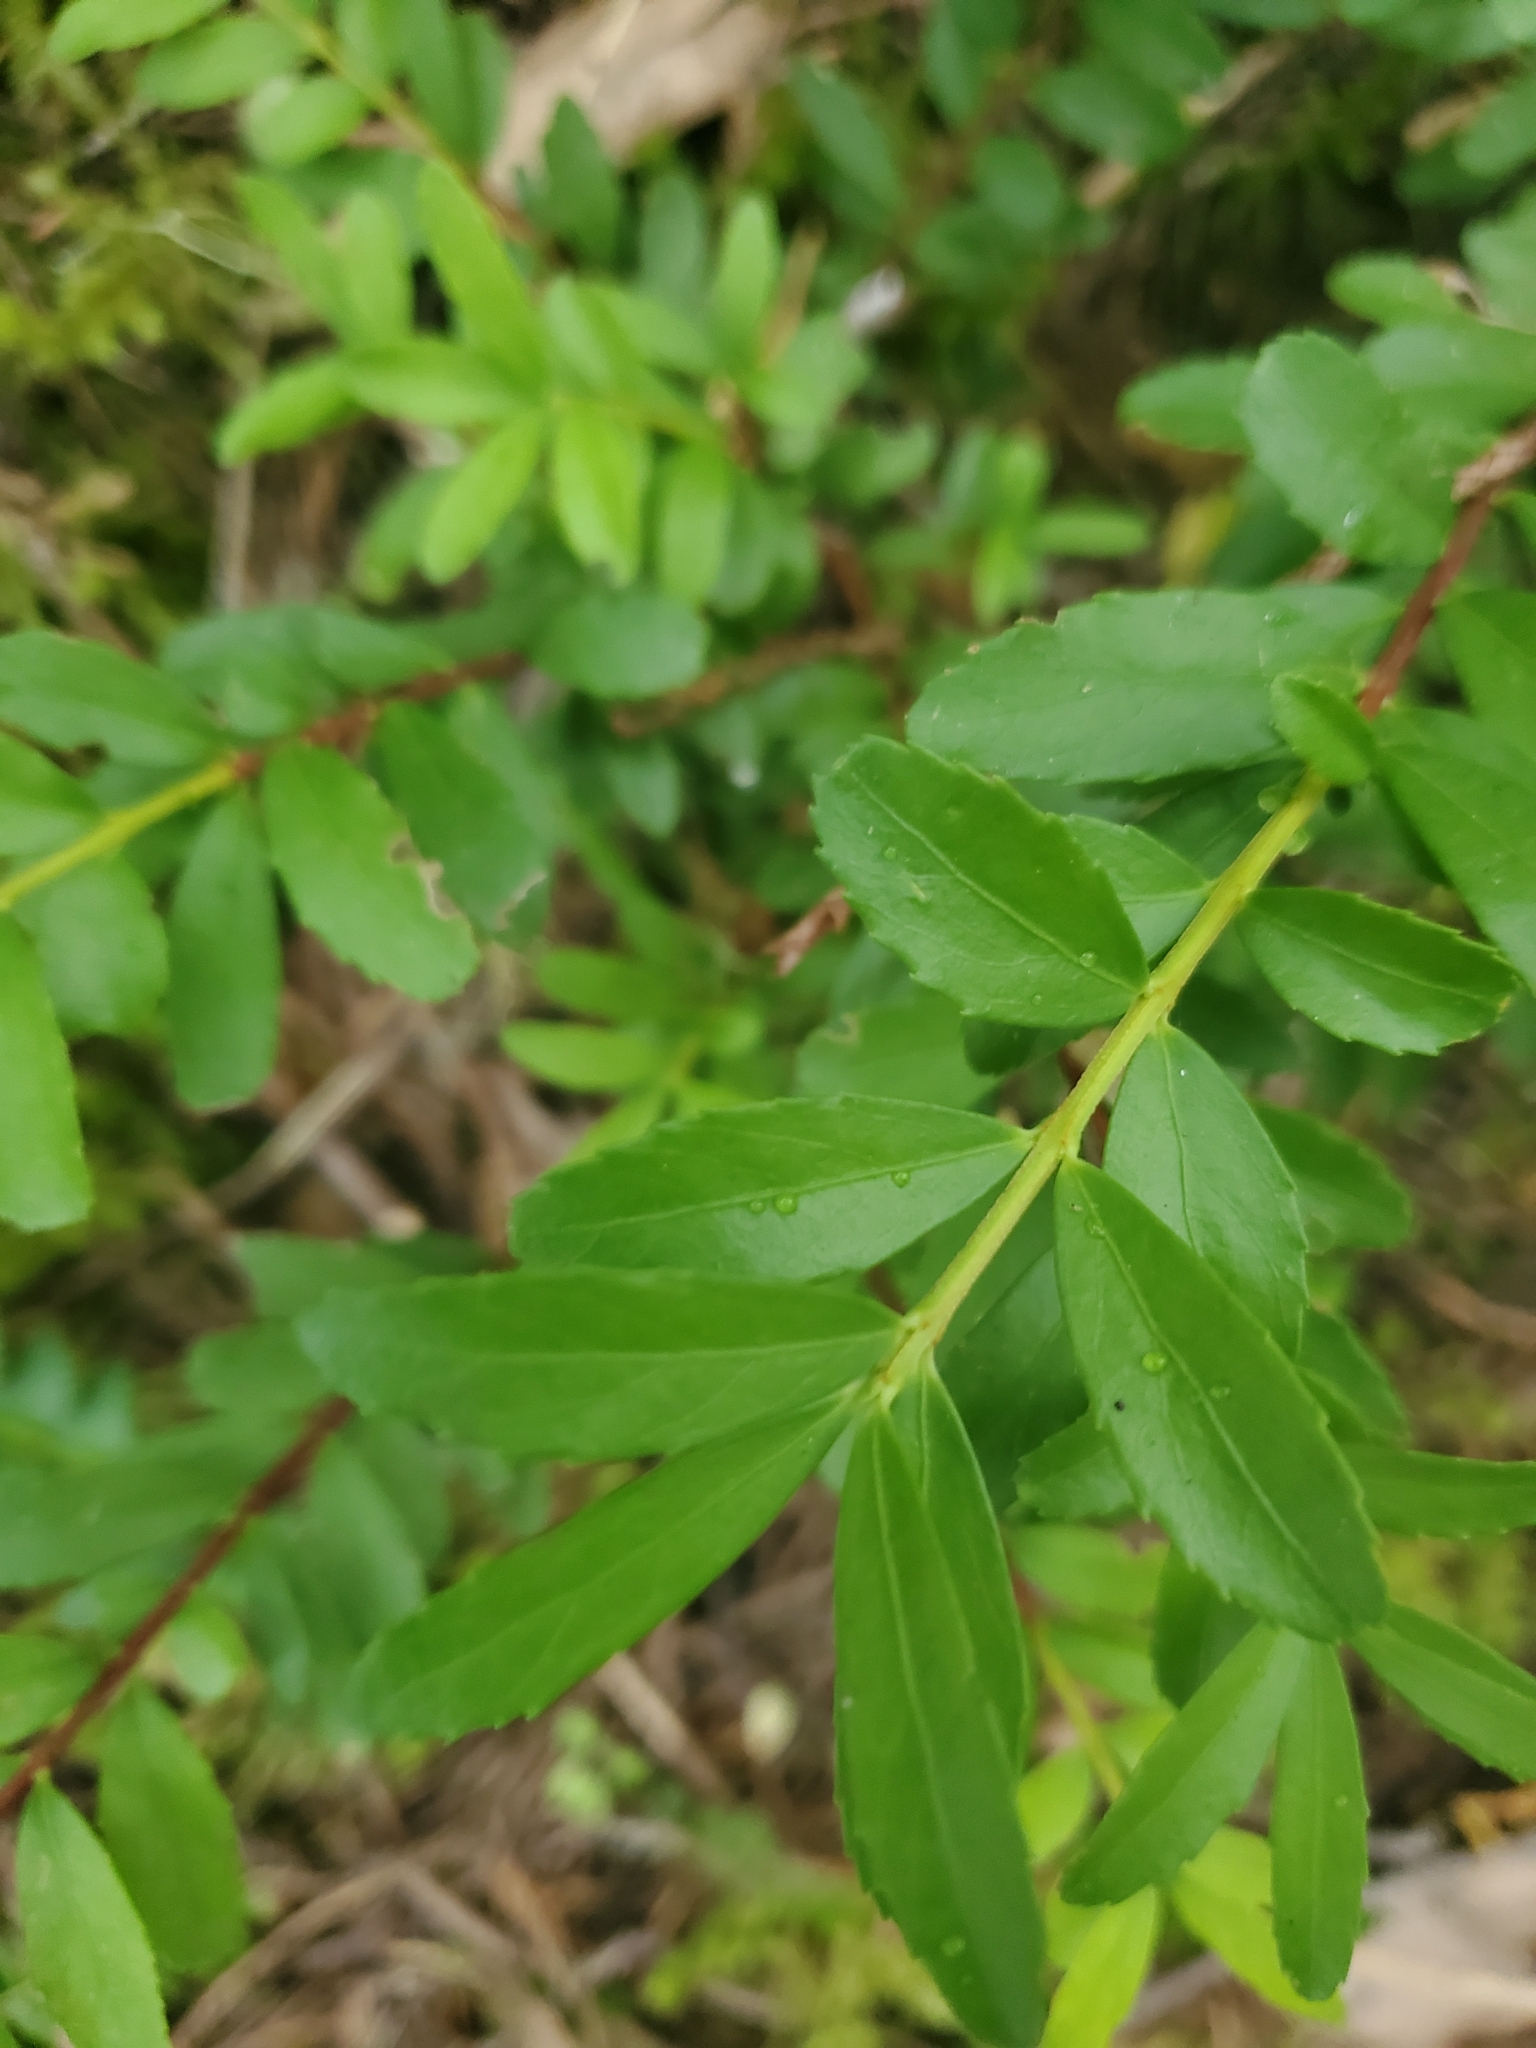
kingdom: Plantae
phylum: Tracheophyta
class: Magnoliopsida
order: Celastrales
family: Celastraceae
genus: Paxistima
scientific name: Paxistima myrsinites
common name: Mountain-lover
